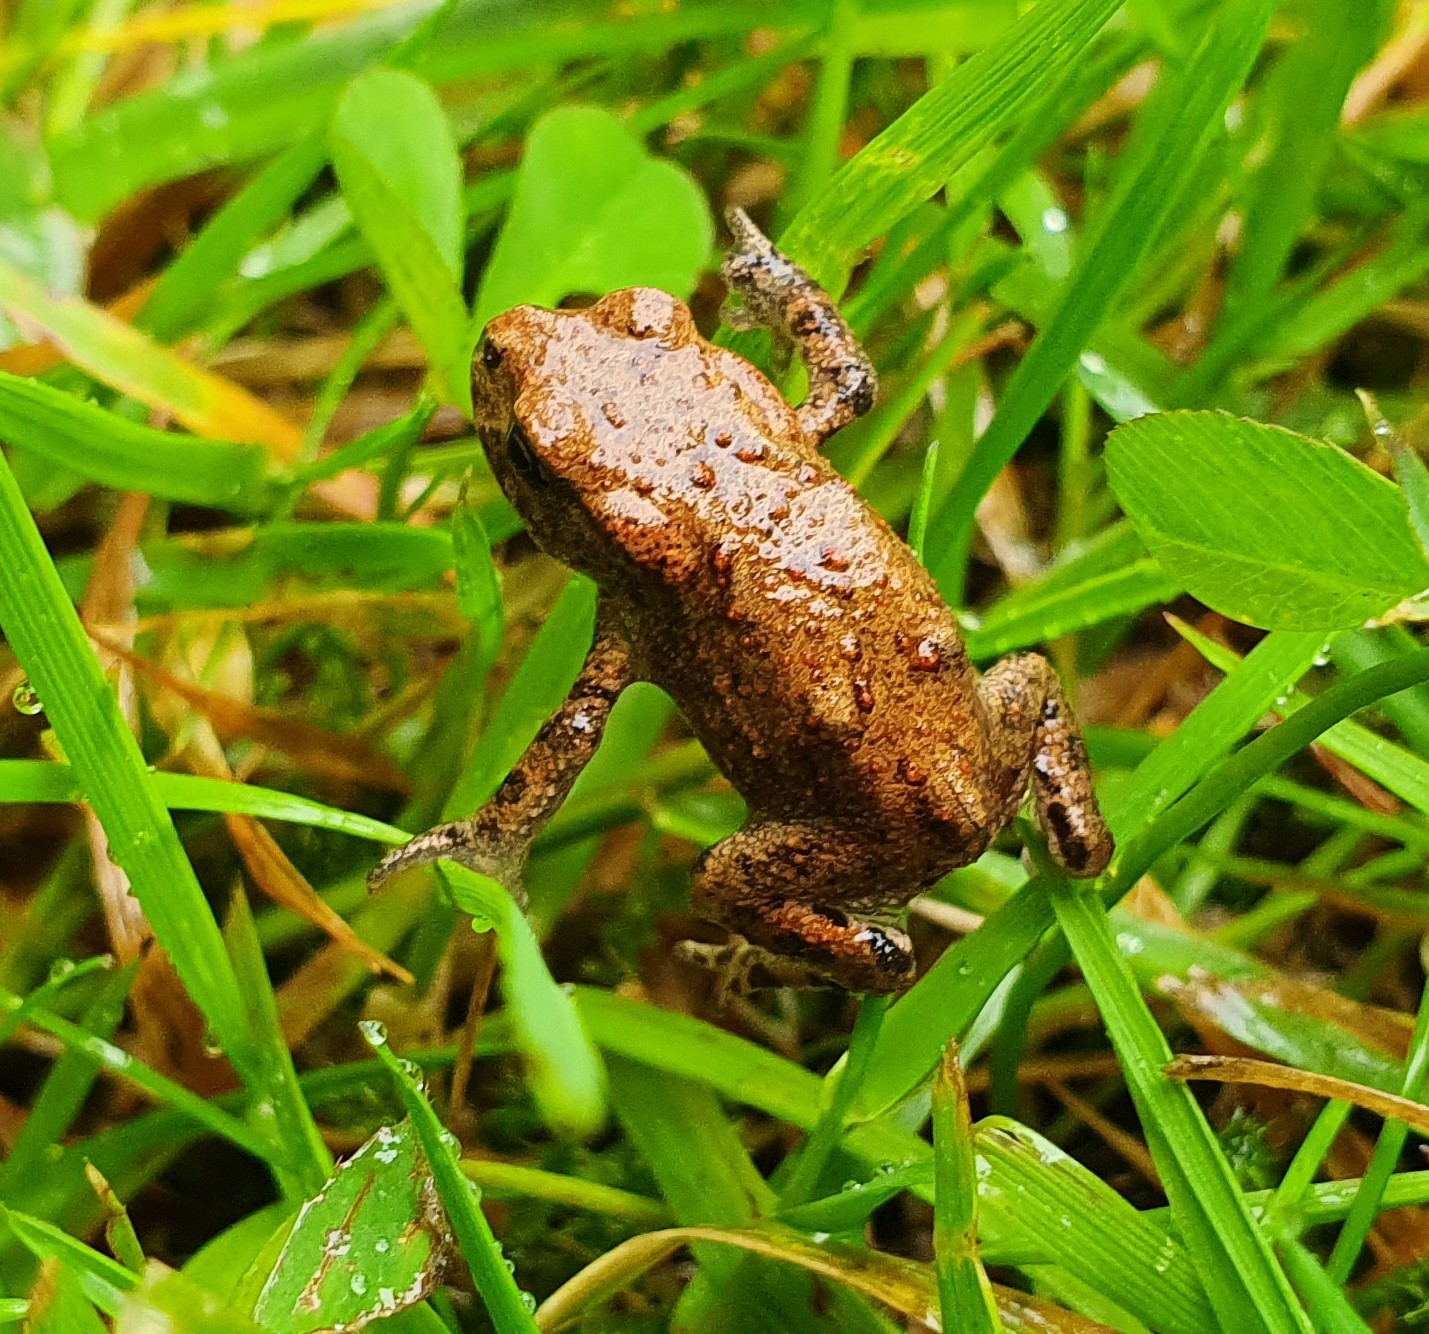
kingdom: Animalia
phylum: Chordata
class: Amphibia
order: Anura
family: Bufonidae
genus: Bufo
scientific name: Bufo bufo
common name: Common toad
